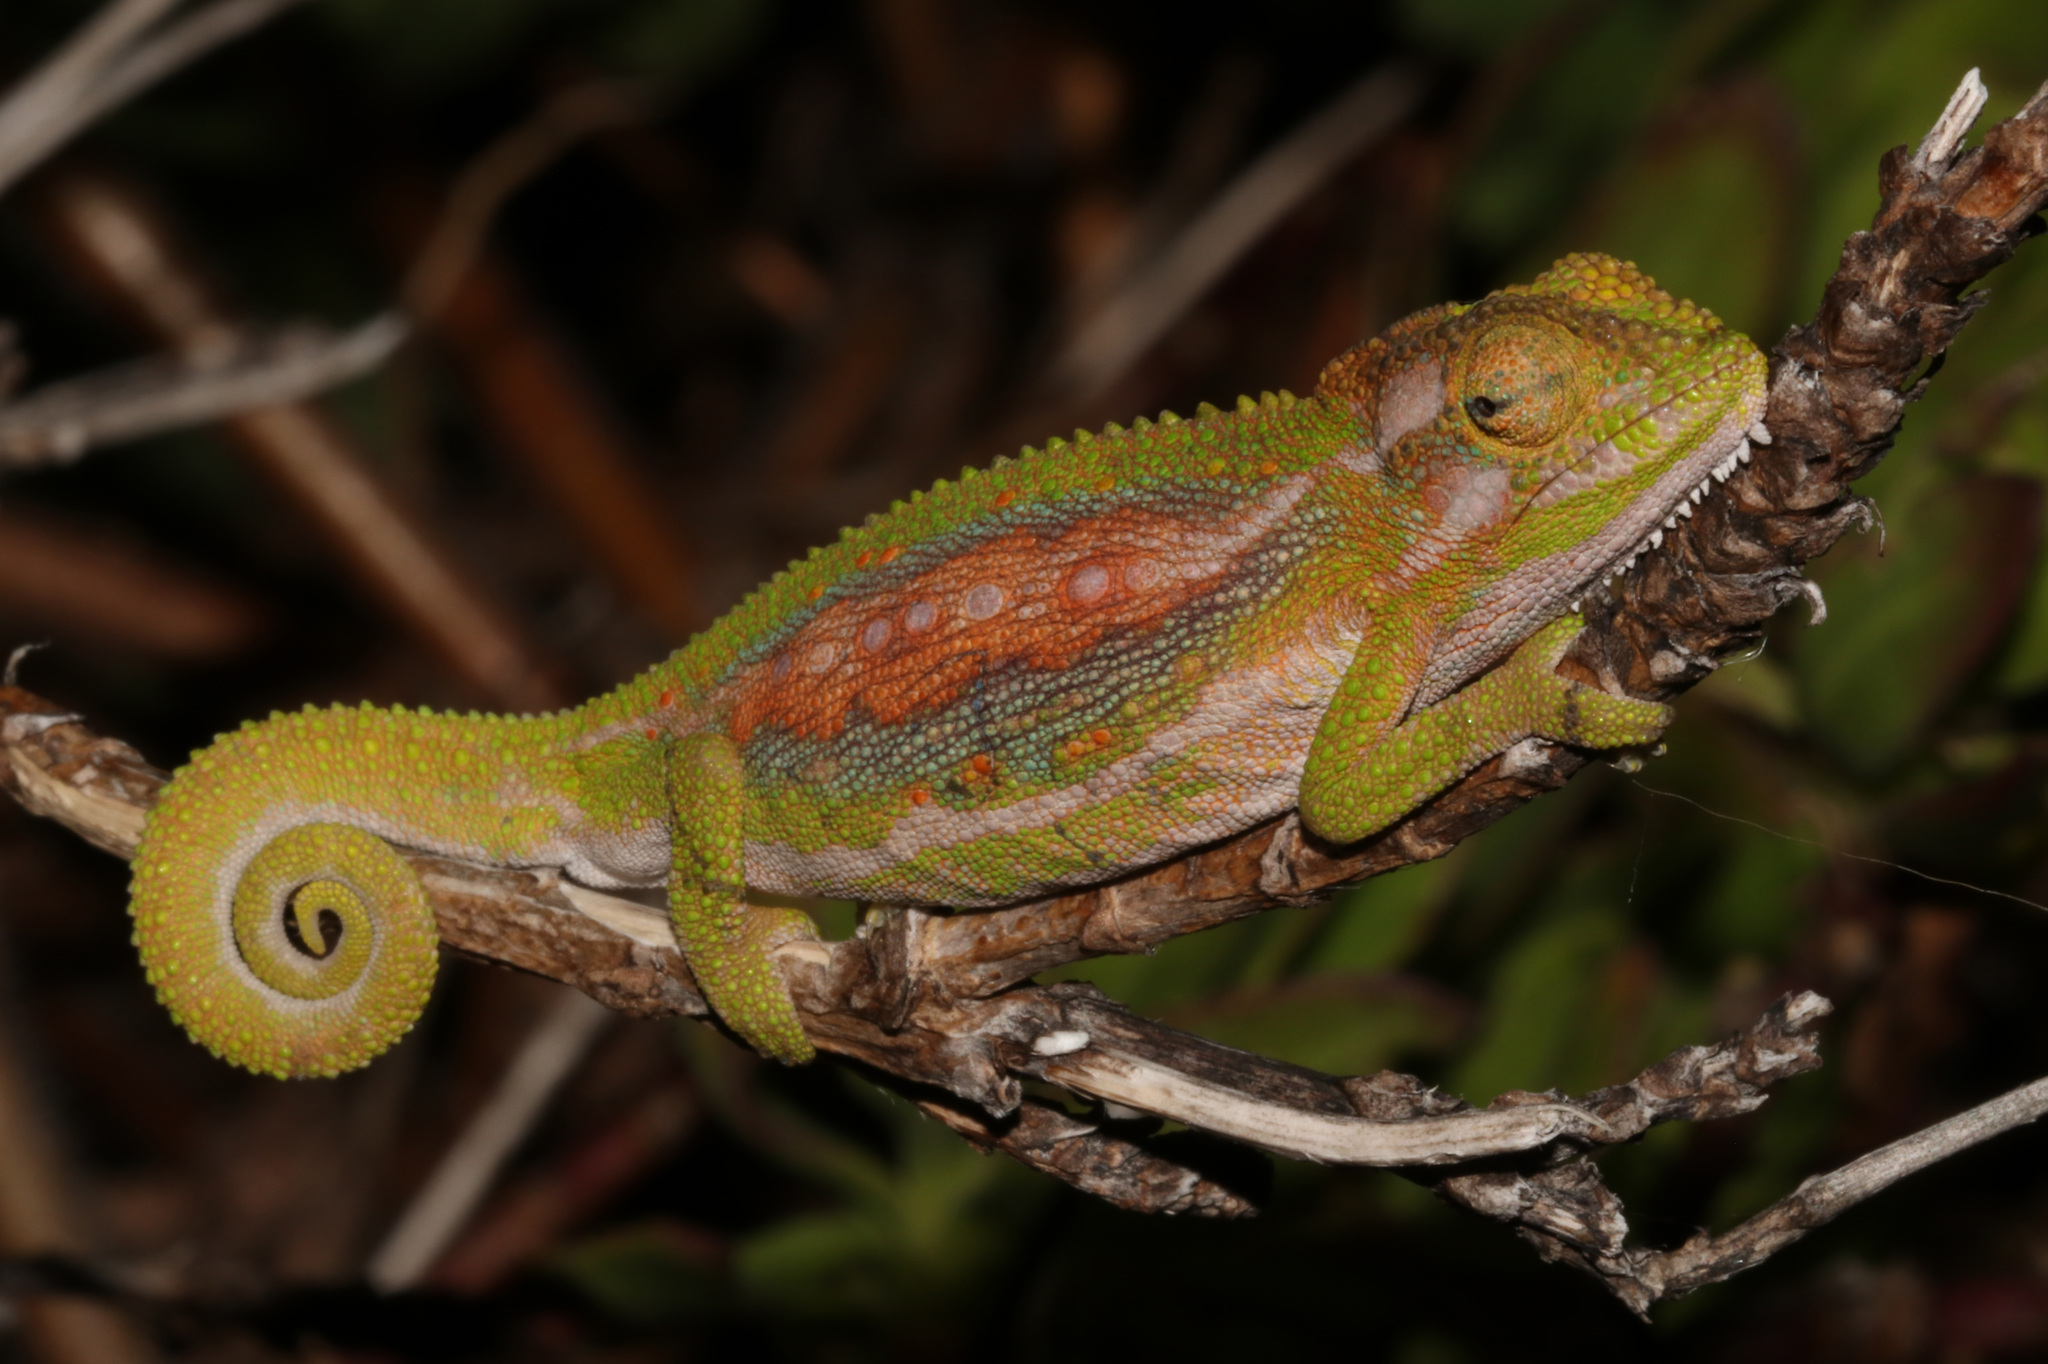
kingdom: Animalia
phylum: Chordata
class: Squamata
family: Chamaeleonidae
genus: Bradypodion
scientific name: Bradypodion pumilum
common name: Cape dwarf chameleon
